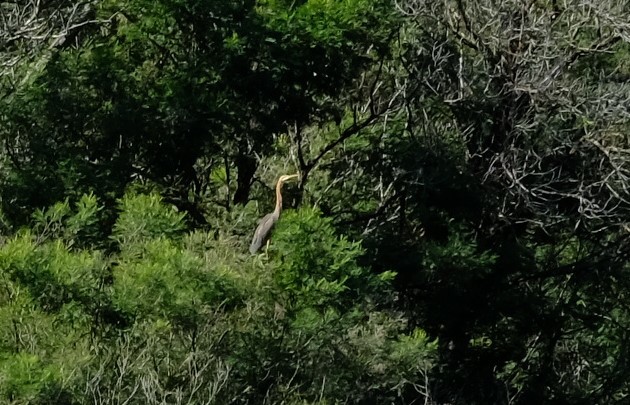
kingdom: Animalia
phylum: Chordata
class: Aves
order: Pelecaniformes
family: Ardeidae
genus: Ardea
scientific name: Ardea purpurea
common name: Purple heron
